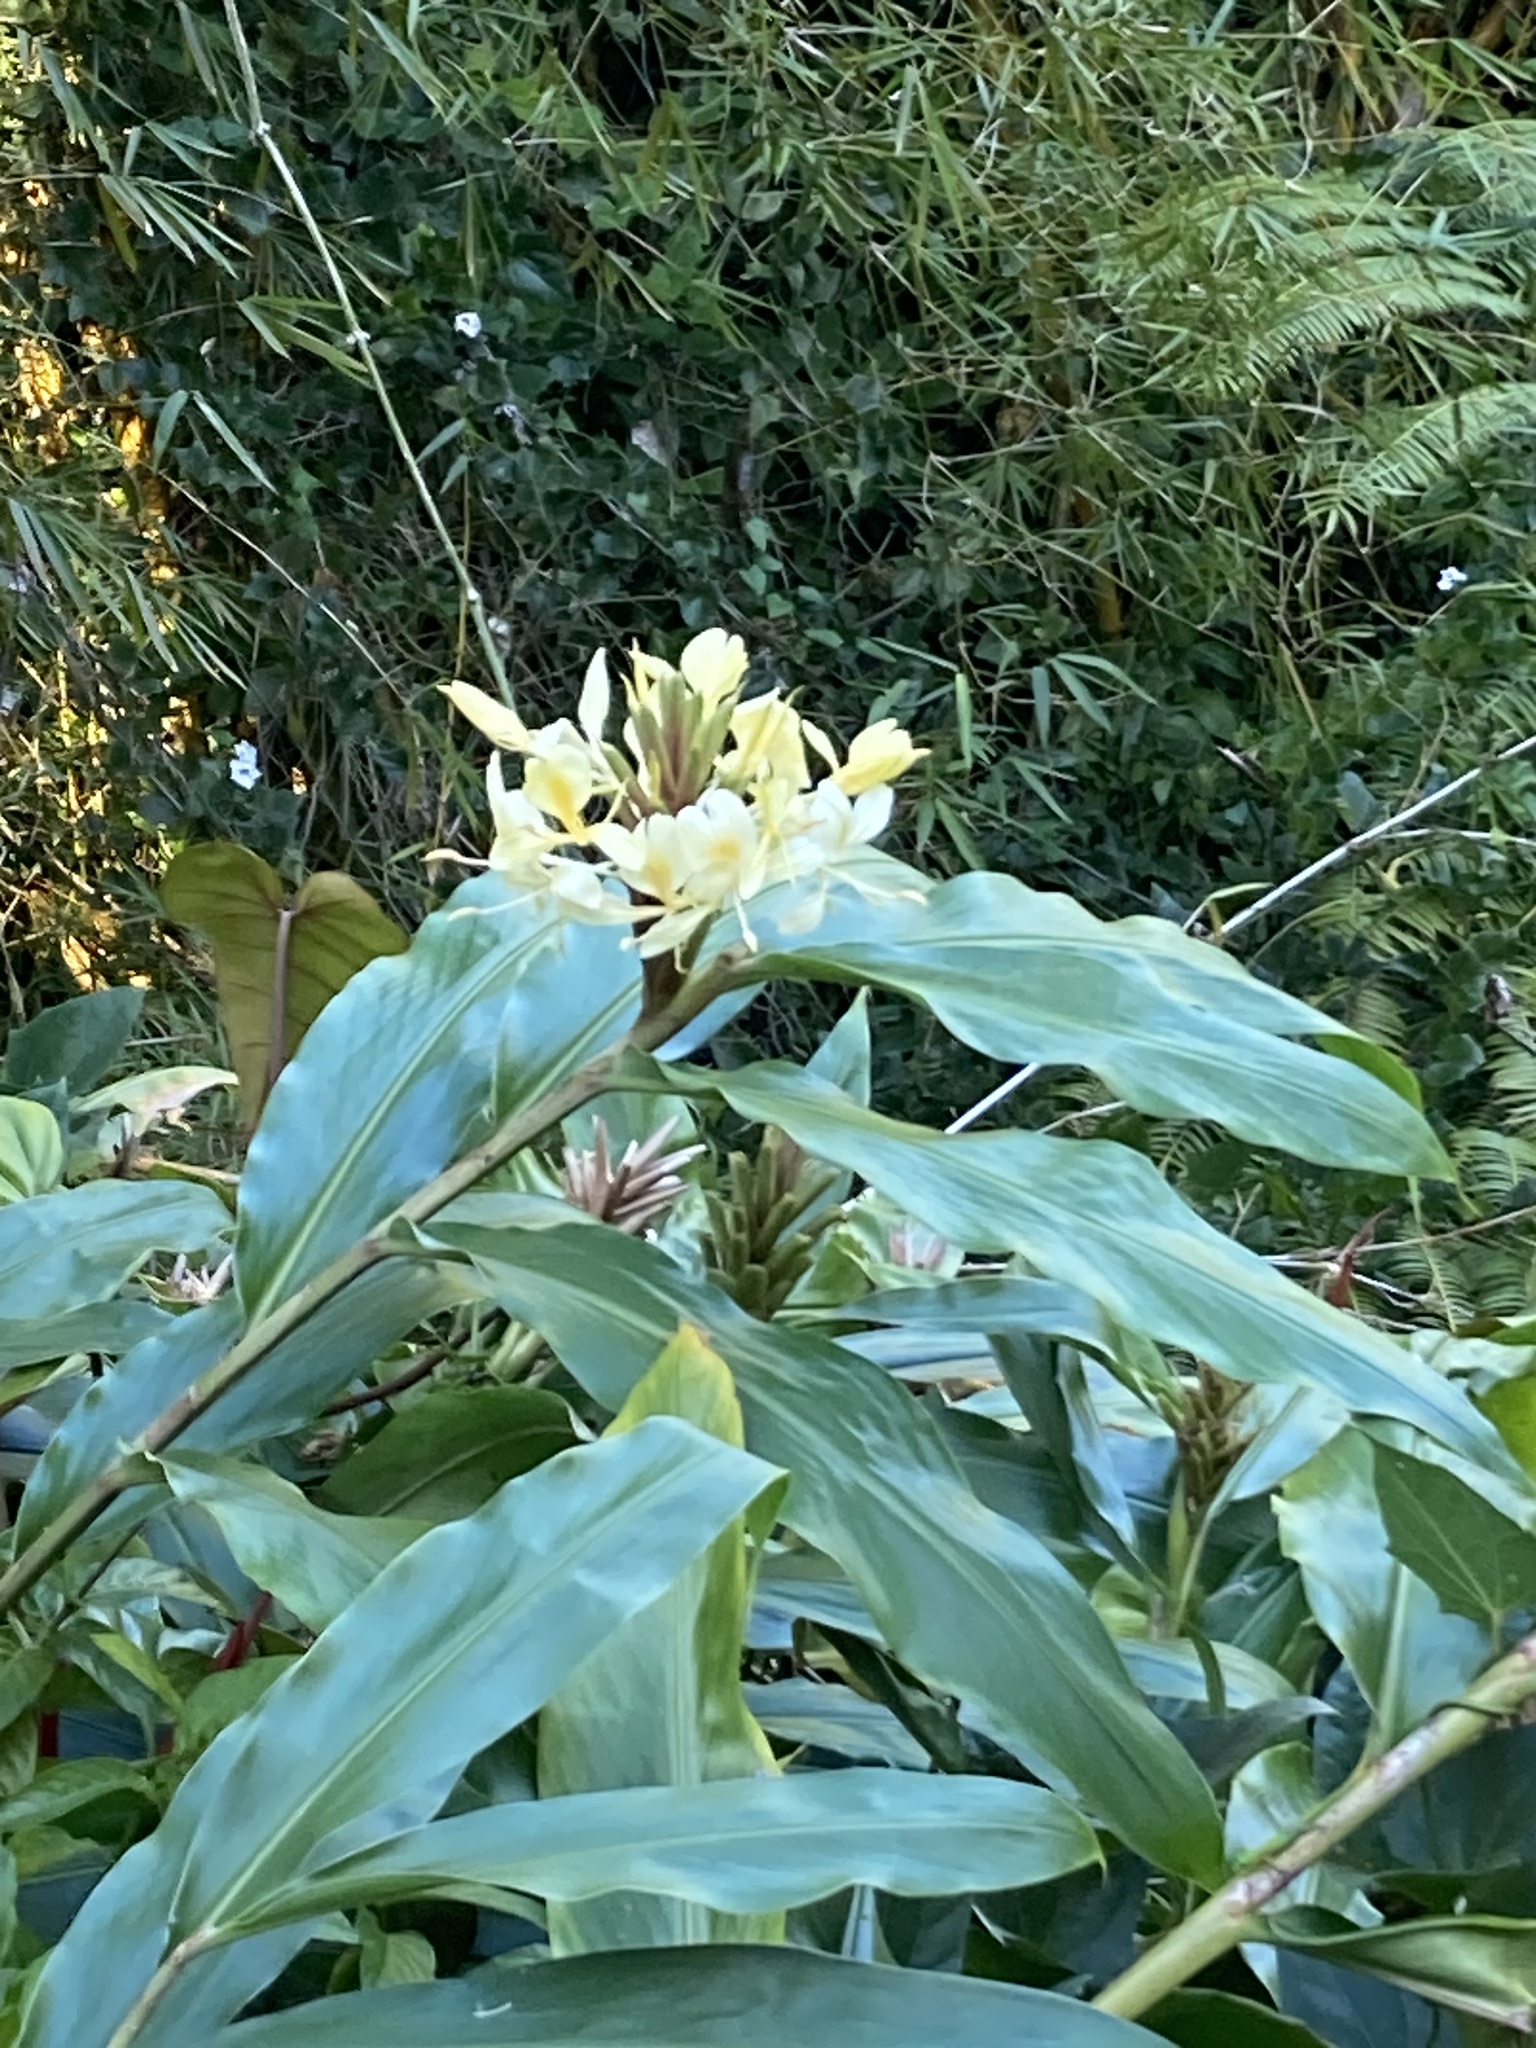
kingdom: Plantae
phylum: Tracheophyta
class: Liliopsida
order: Zingiberales
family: Zingiberaceae
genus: Hedychium
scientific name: Hedychium flavescens
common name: Yellow ginger
